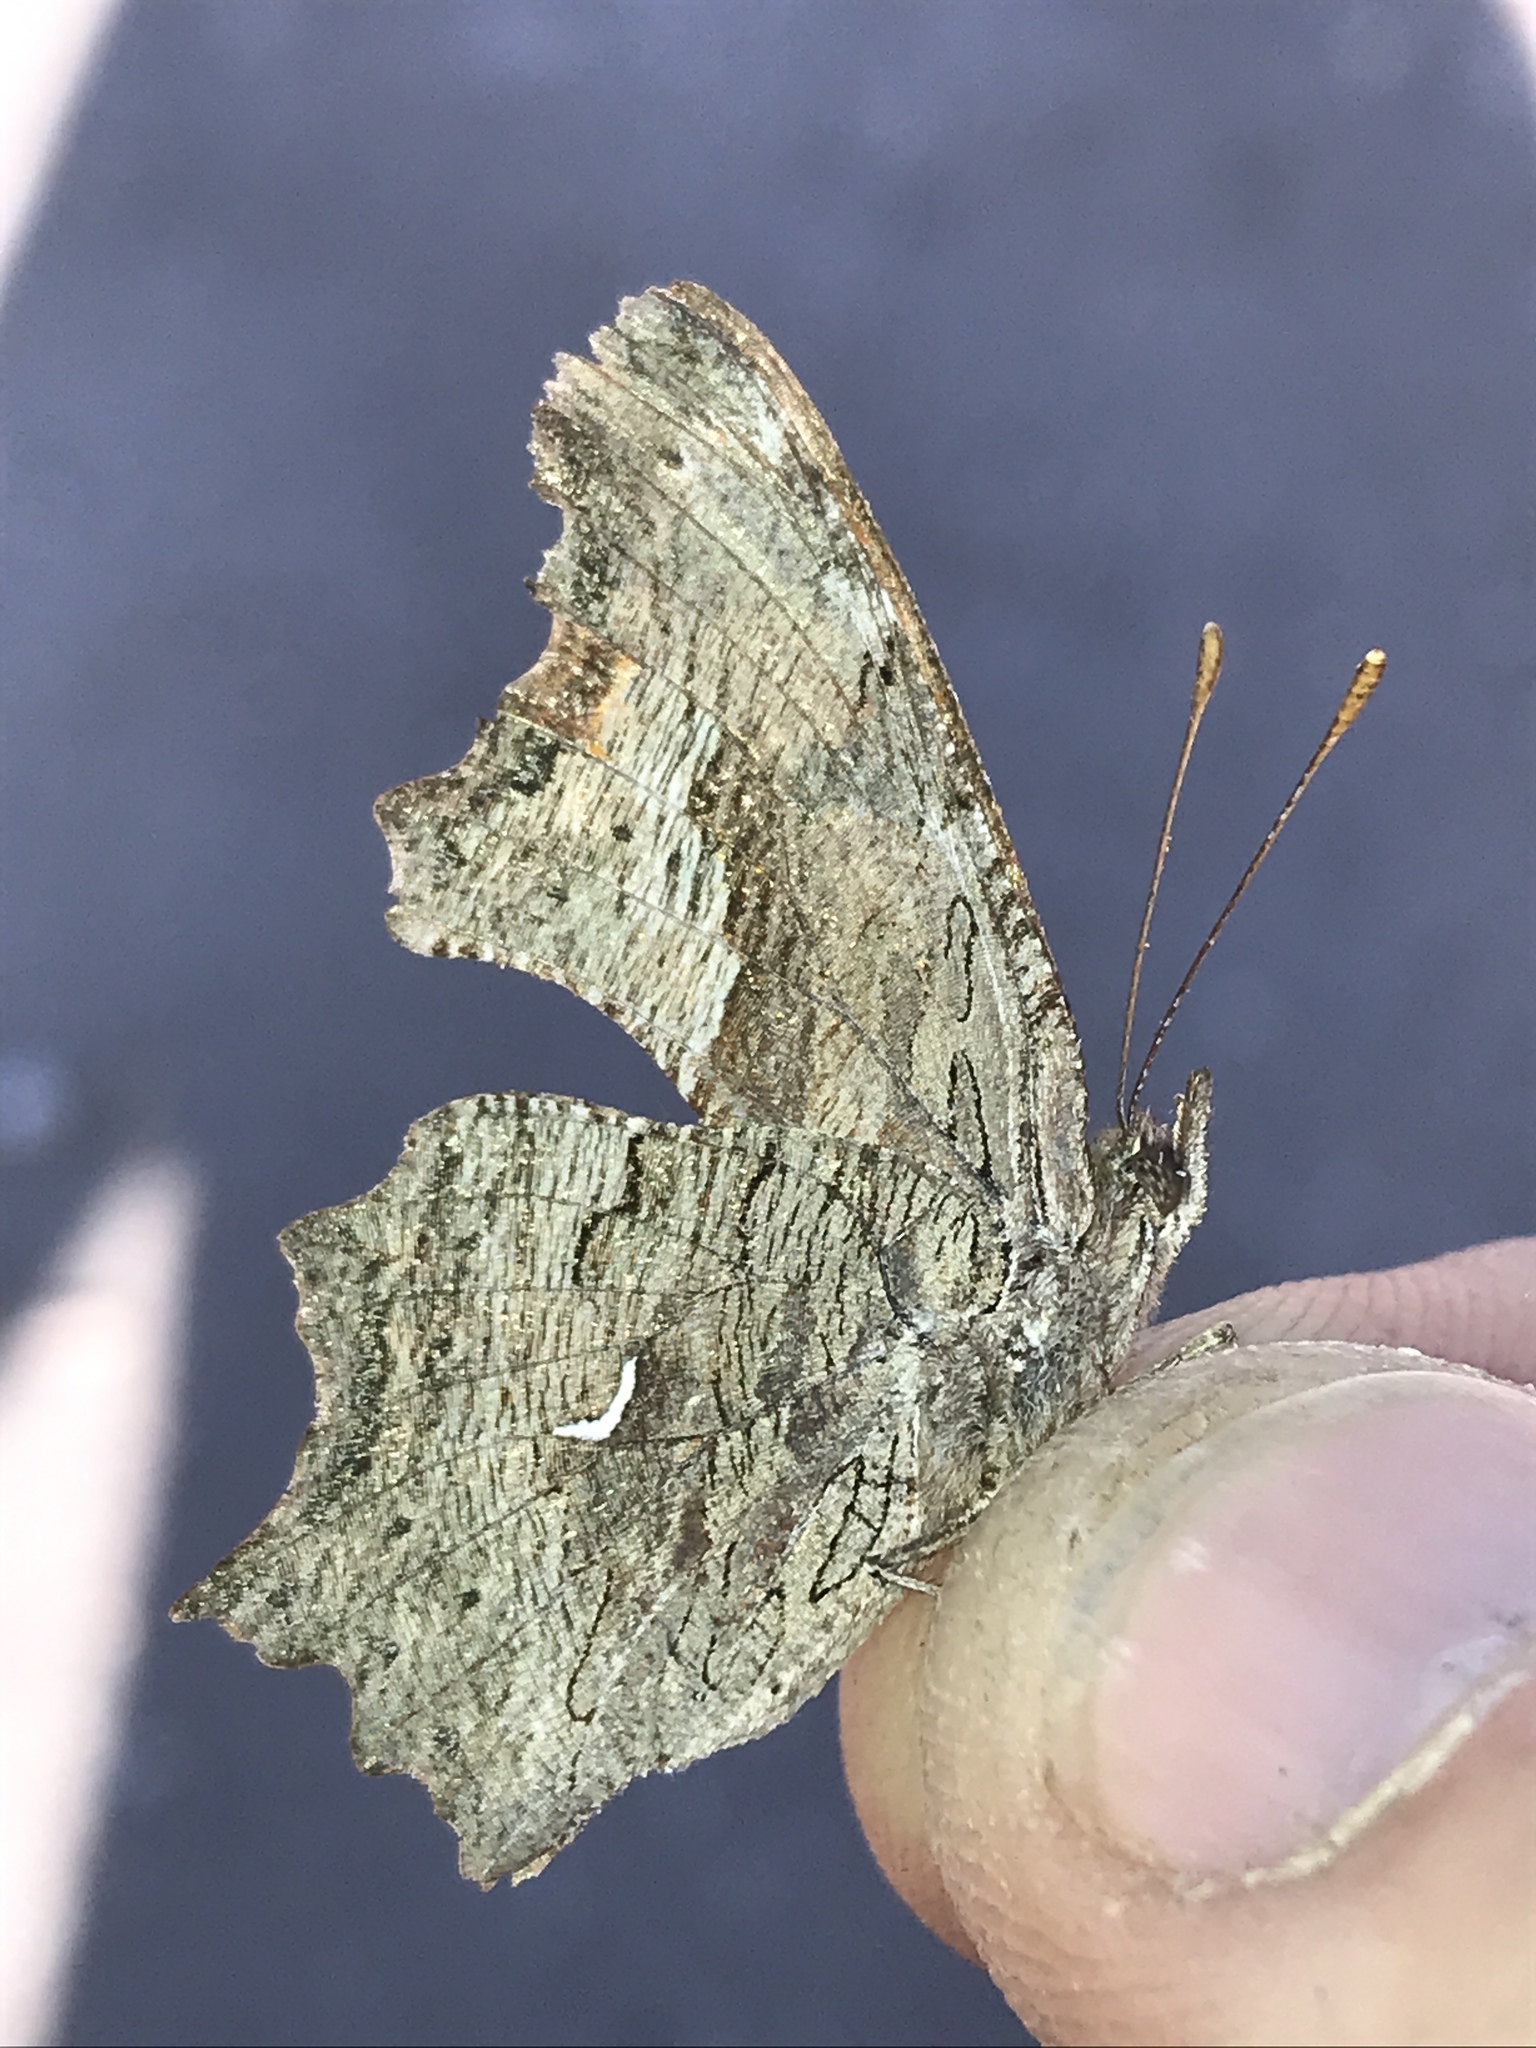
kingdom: Animalia
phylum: Arthropoda
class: Insecta
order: Lepidoptera
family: Nymphalidae
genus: Polygonia
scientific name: Polygonia gracilis
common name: Hoary comma
